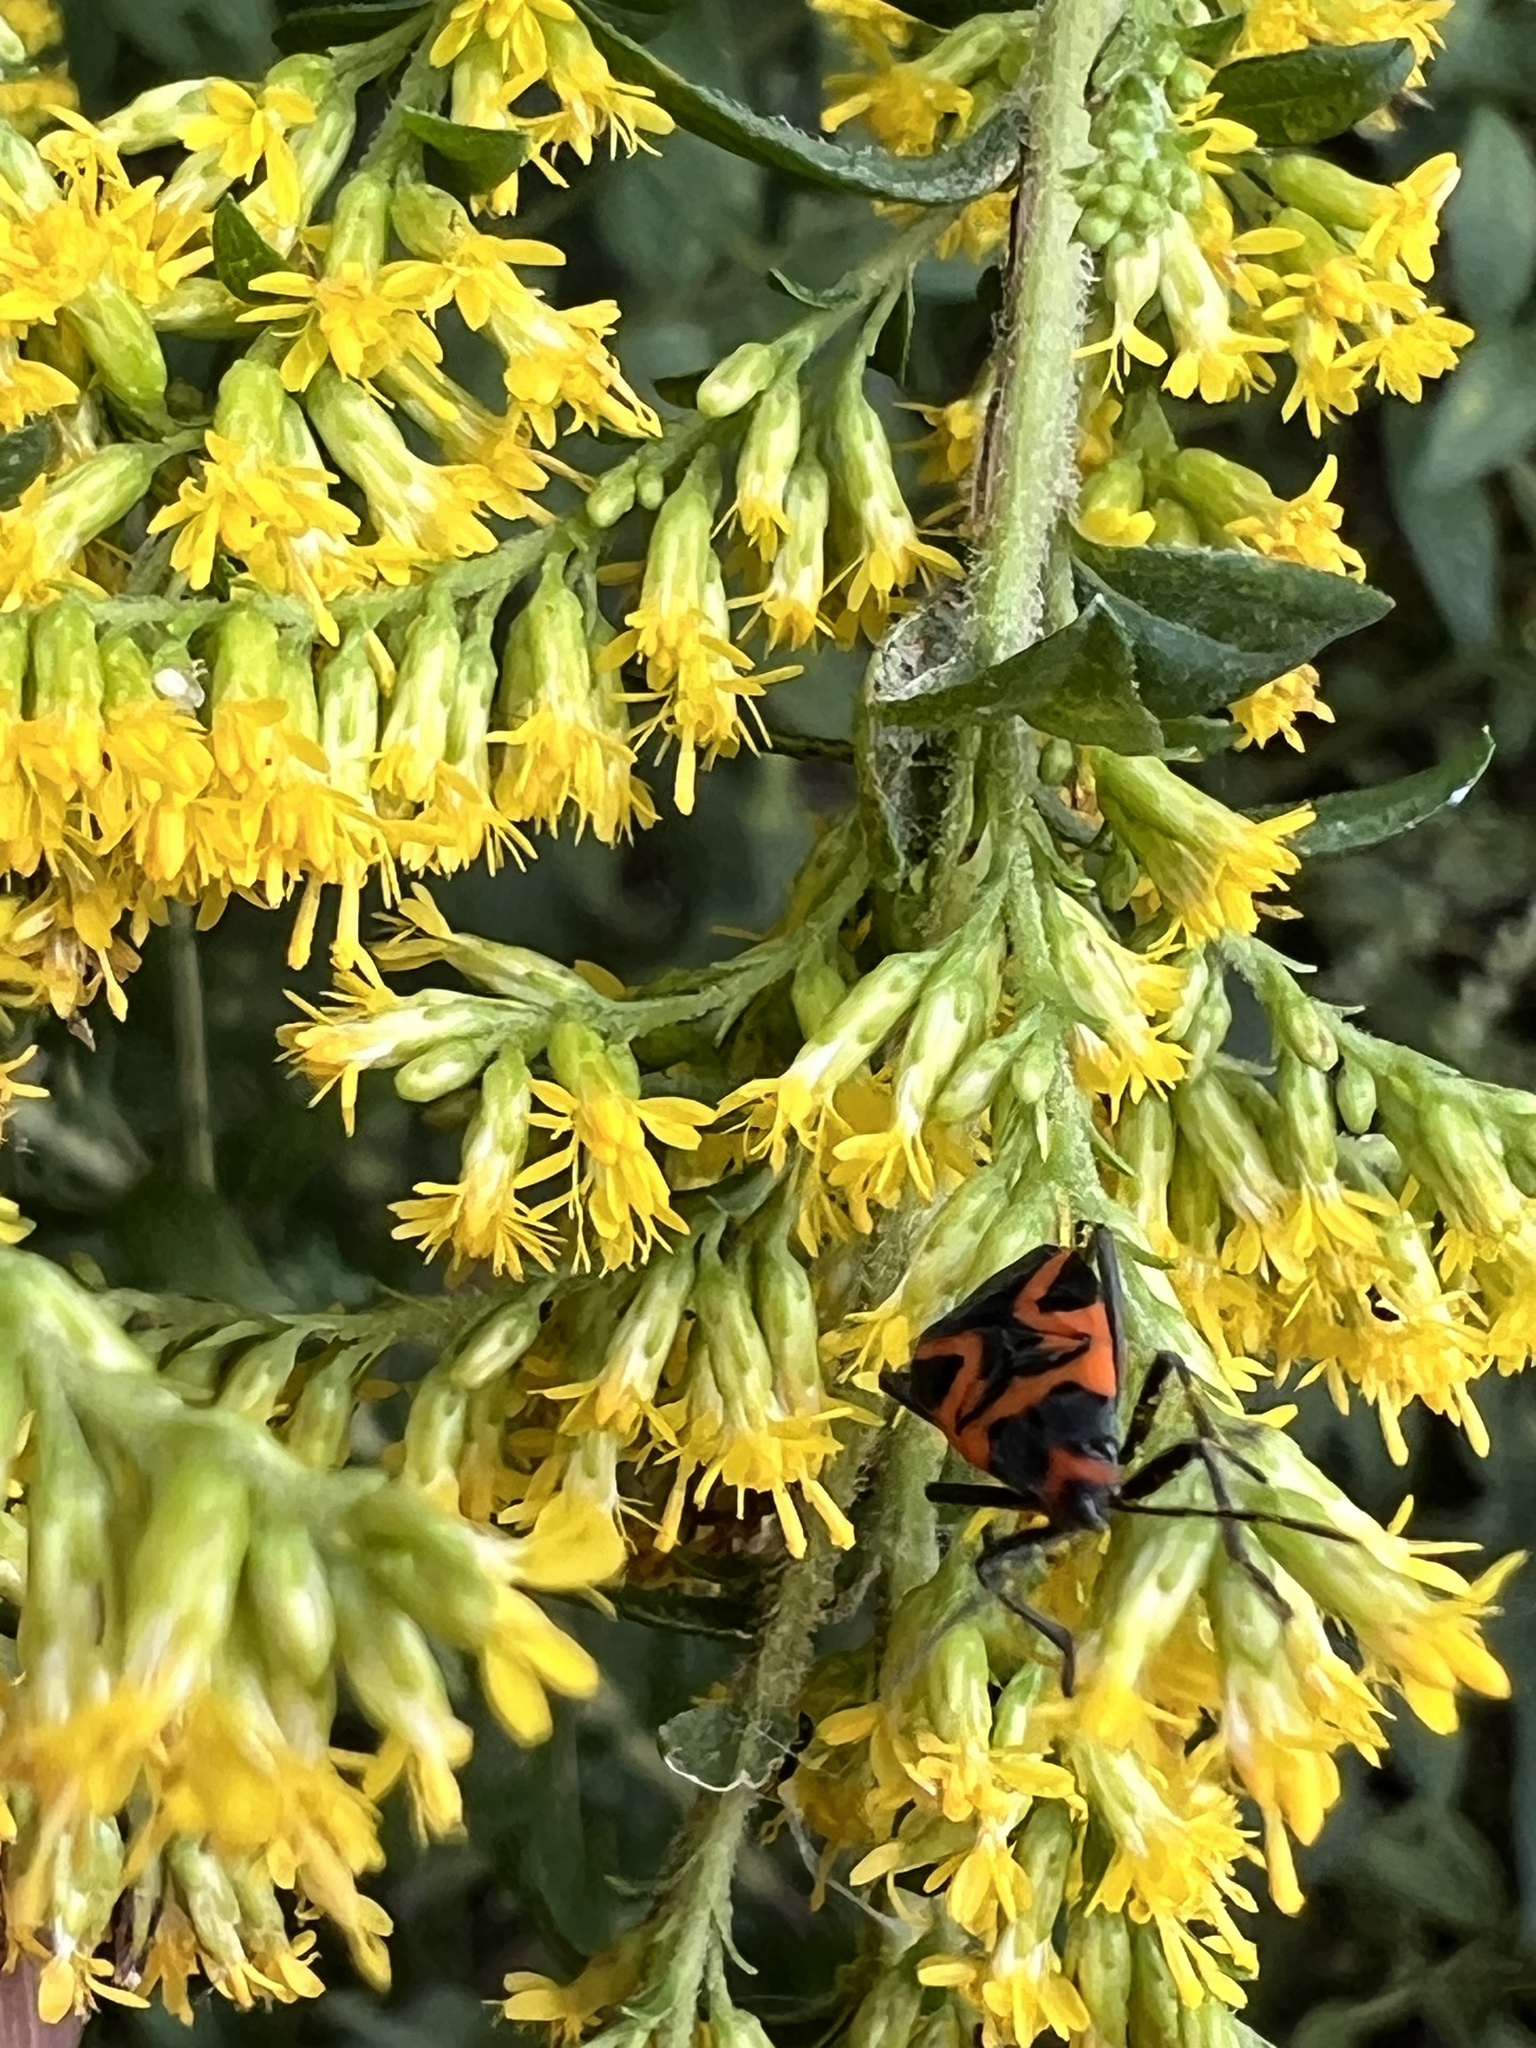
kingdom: Animalia
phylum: Arthropoda
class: Insecta
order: Hemiptera
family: Lygaeidae
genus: Lygaeus
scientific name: Lygaeus turcicus
